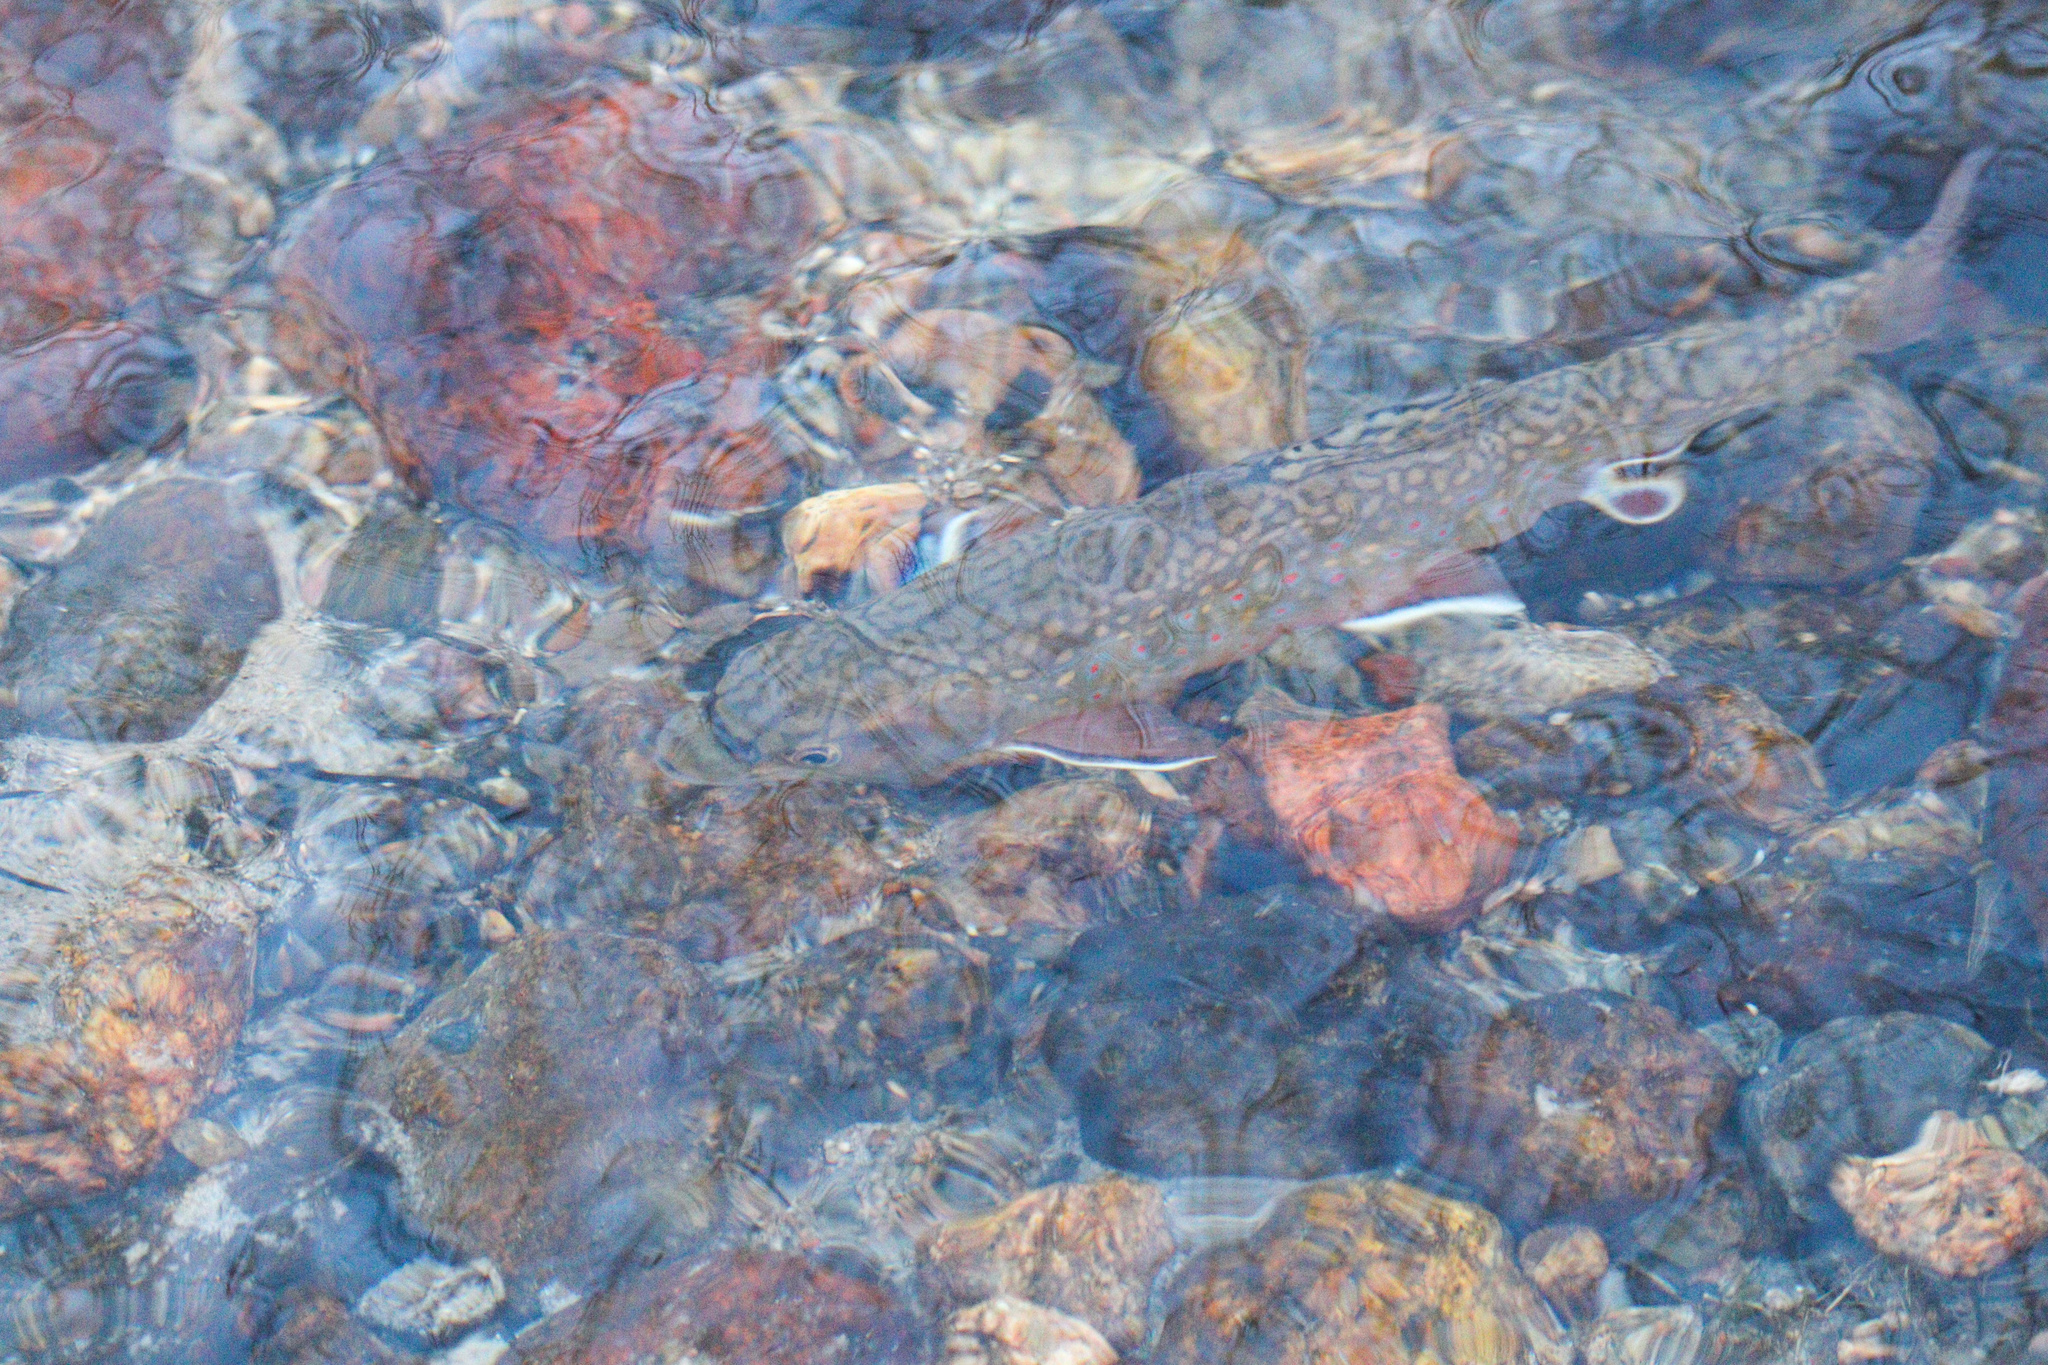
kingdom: Animalia
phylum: Chordata
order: Salmoniformes
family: Salmonidae
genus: Salvelinus
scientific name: Salvelinus fontinalis
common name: Brook trout
